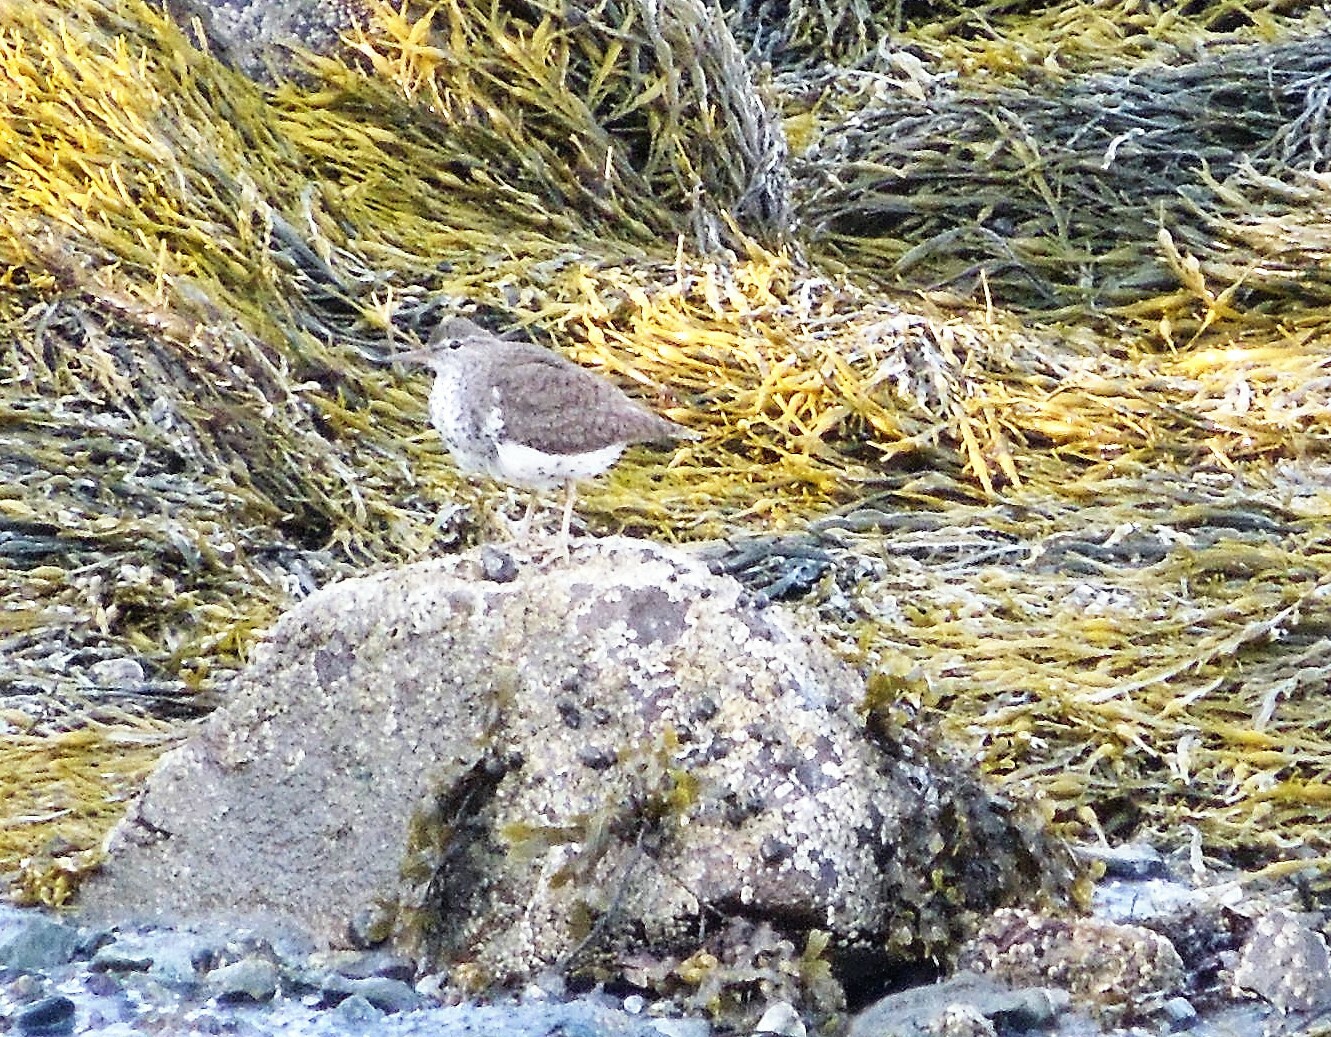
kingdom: Animalia
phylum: Chordata
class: Aves
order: Charadriiformes
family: Scolopacidae
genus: Actitis
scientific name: Actitis macularius
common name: Spotted sandpiper
